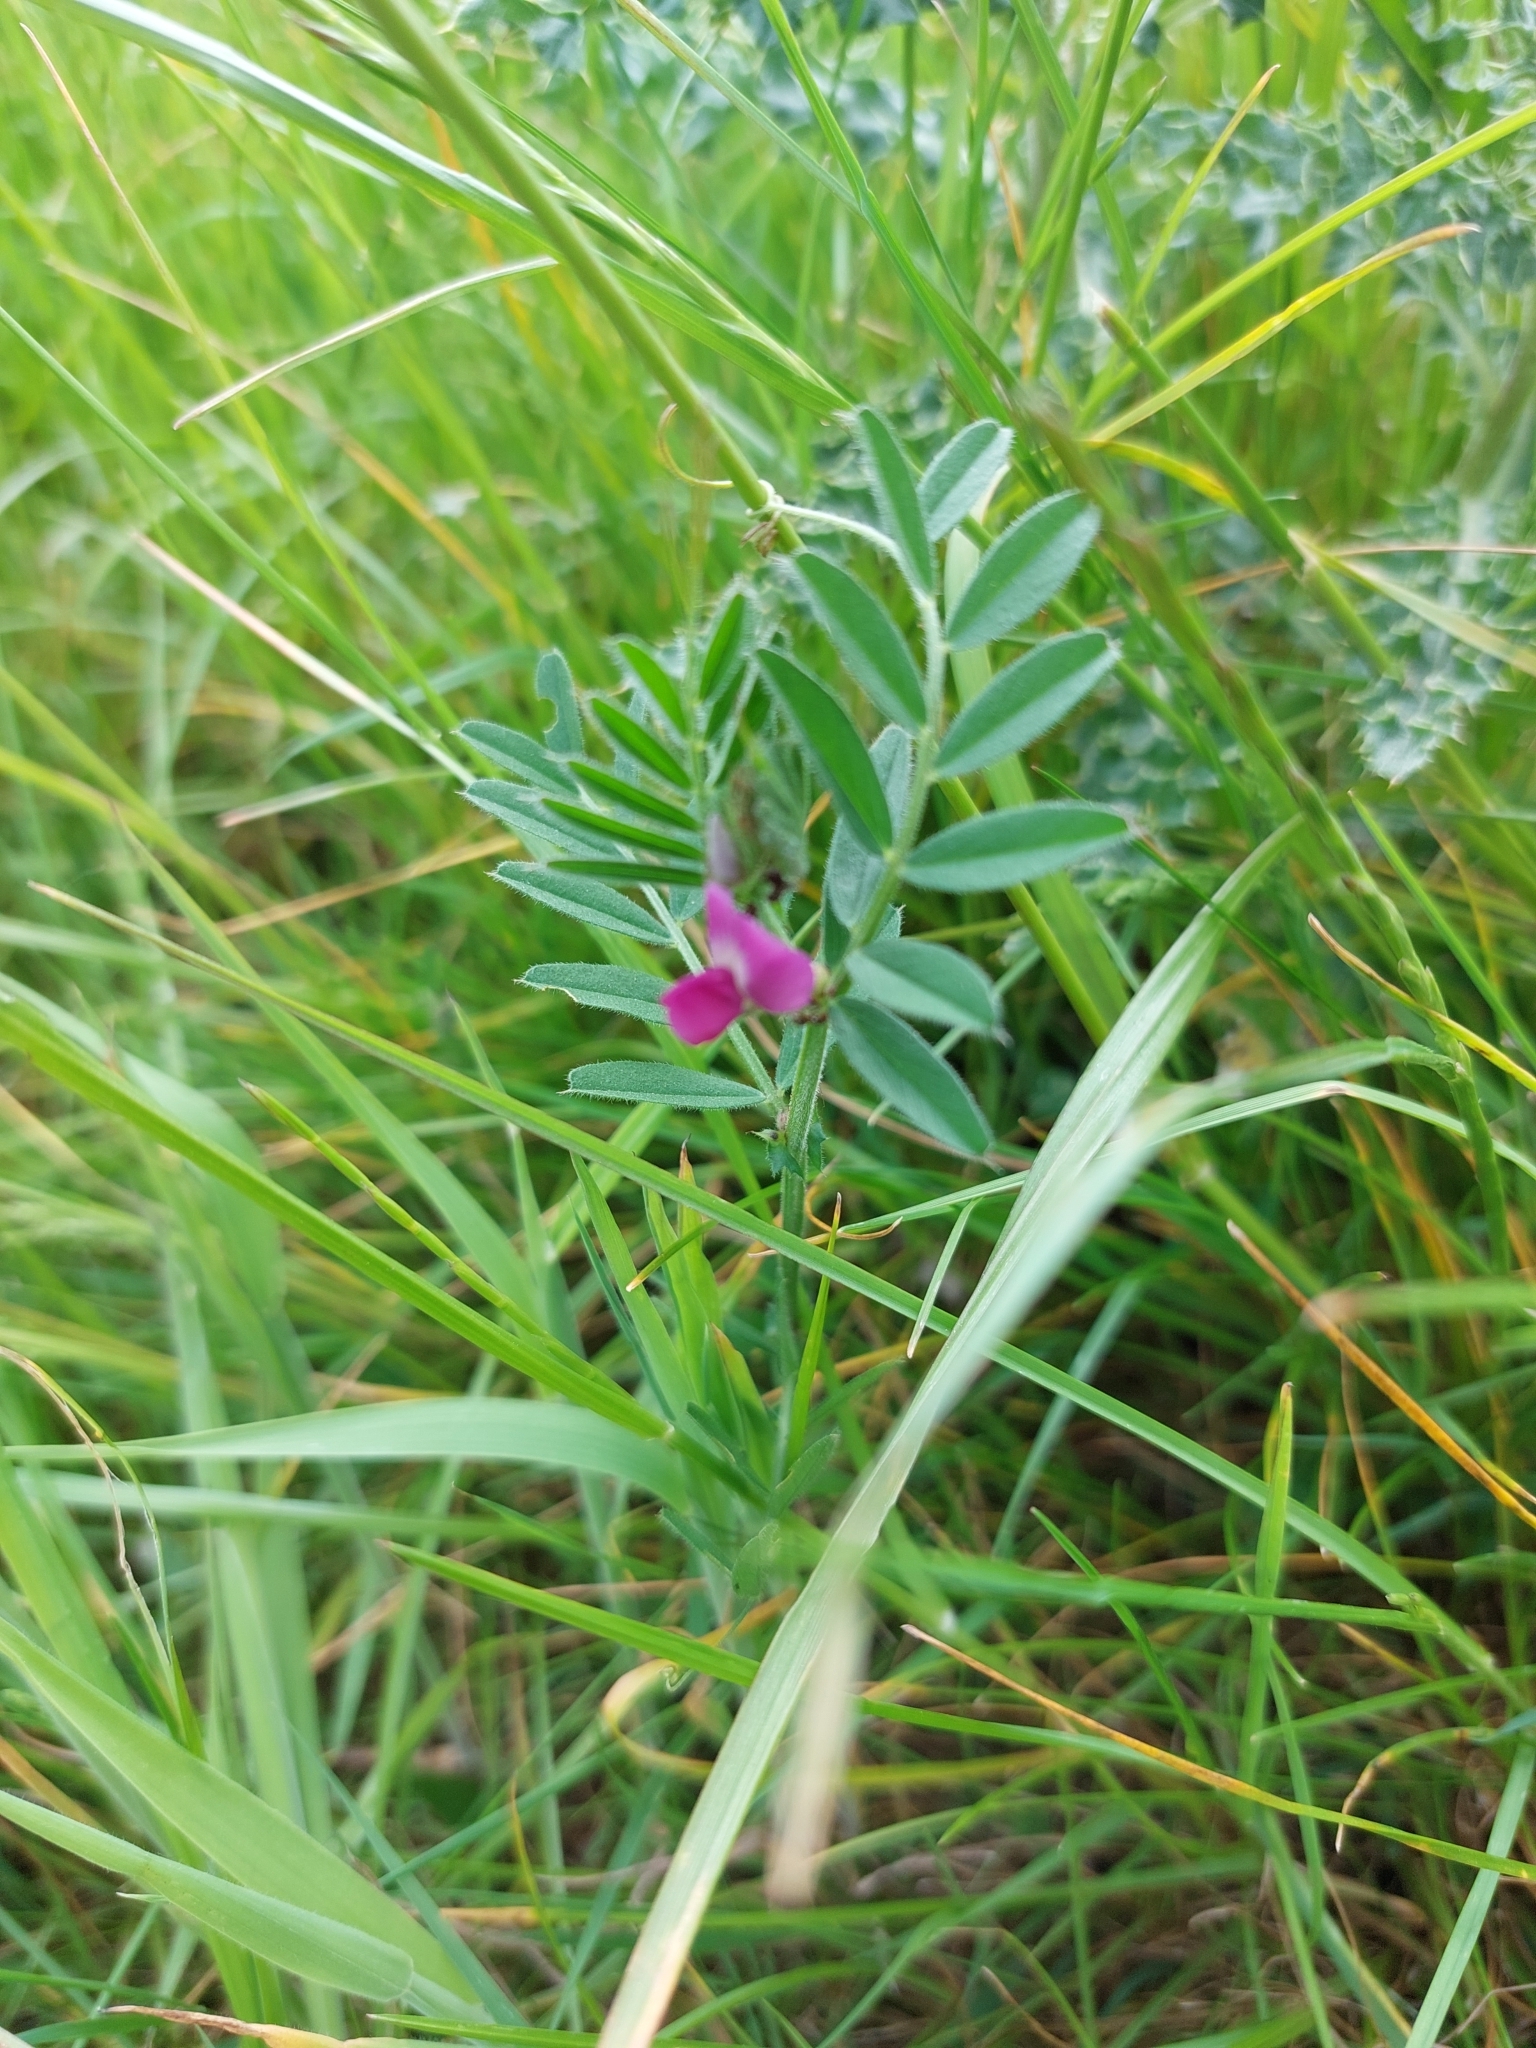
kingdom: Plantae
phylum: Tracheophyta
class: Magnoliopsida
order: Fabales
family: Fabaceae
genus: Vicia
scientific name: Vicia sativa
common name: Garden vetch
